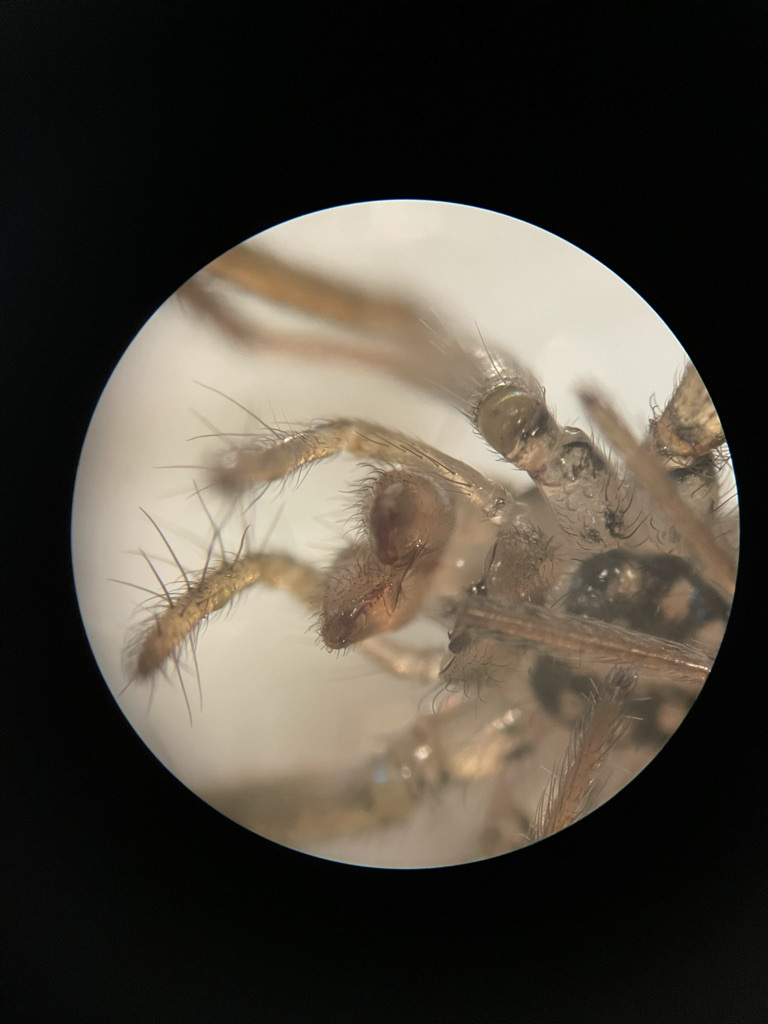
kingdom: Animalia
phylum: Arthropoda
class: Arachnida
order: Araneae
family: Agelenidae
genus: Eratigena
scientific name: Eratigena duellica
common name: Giant house spider
